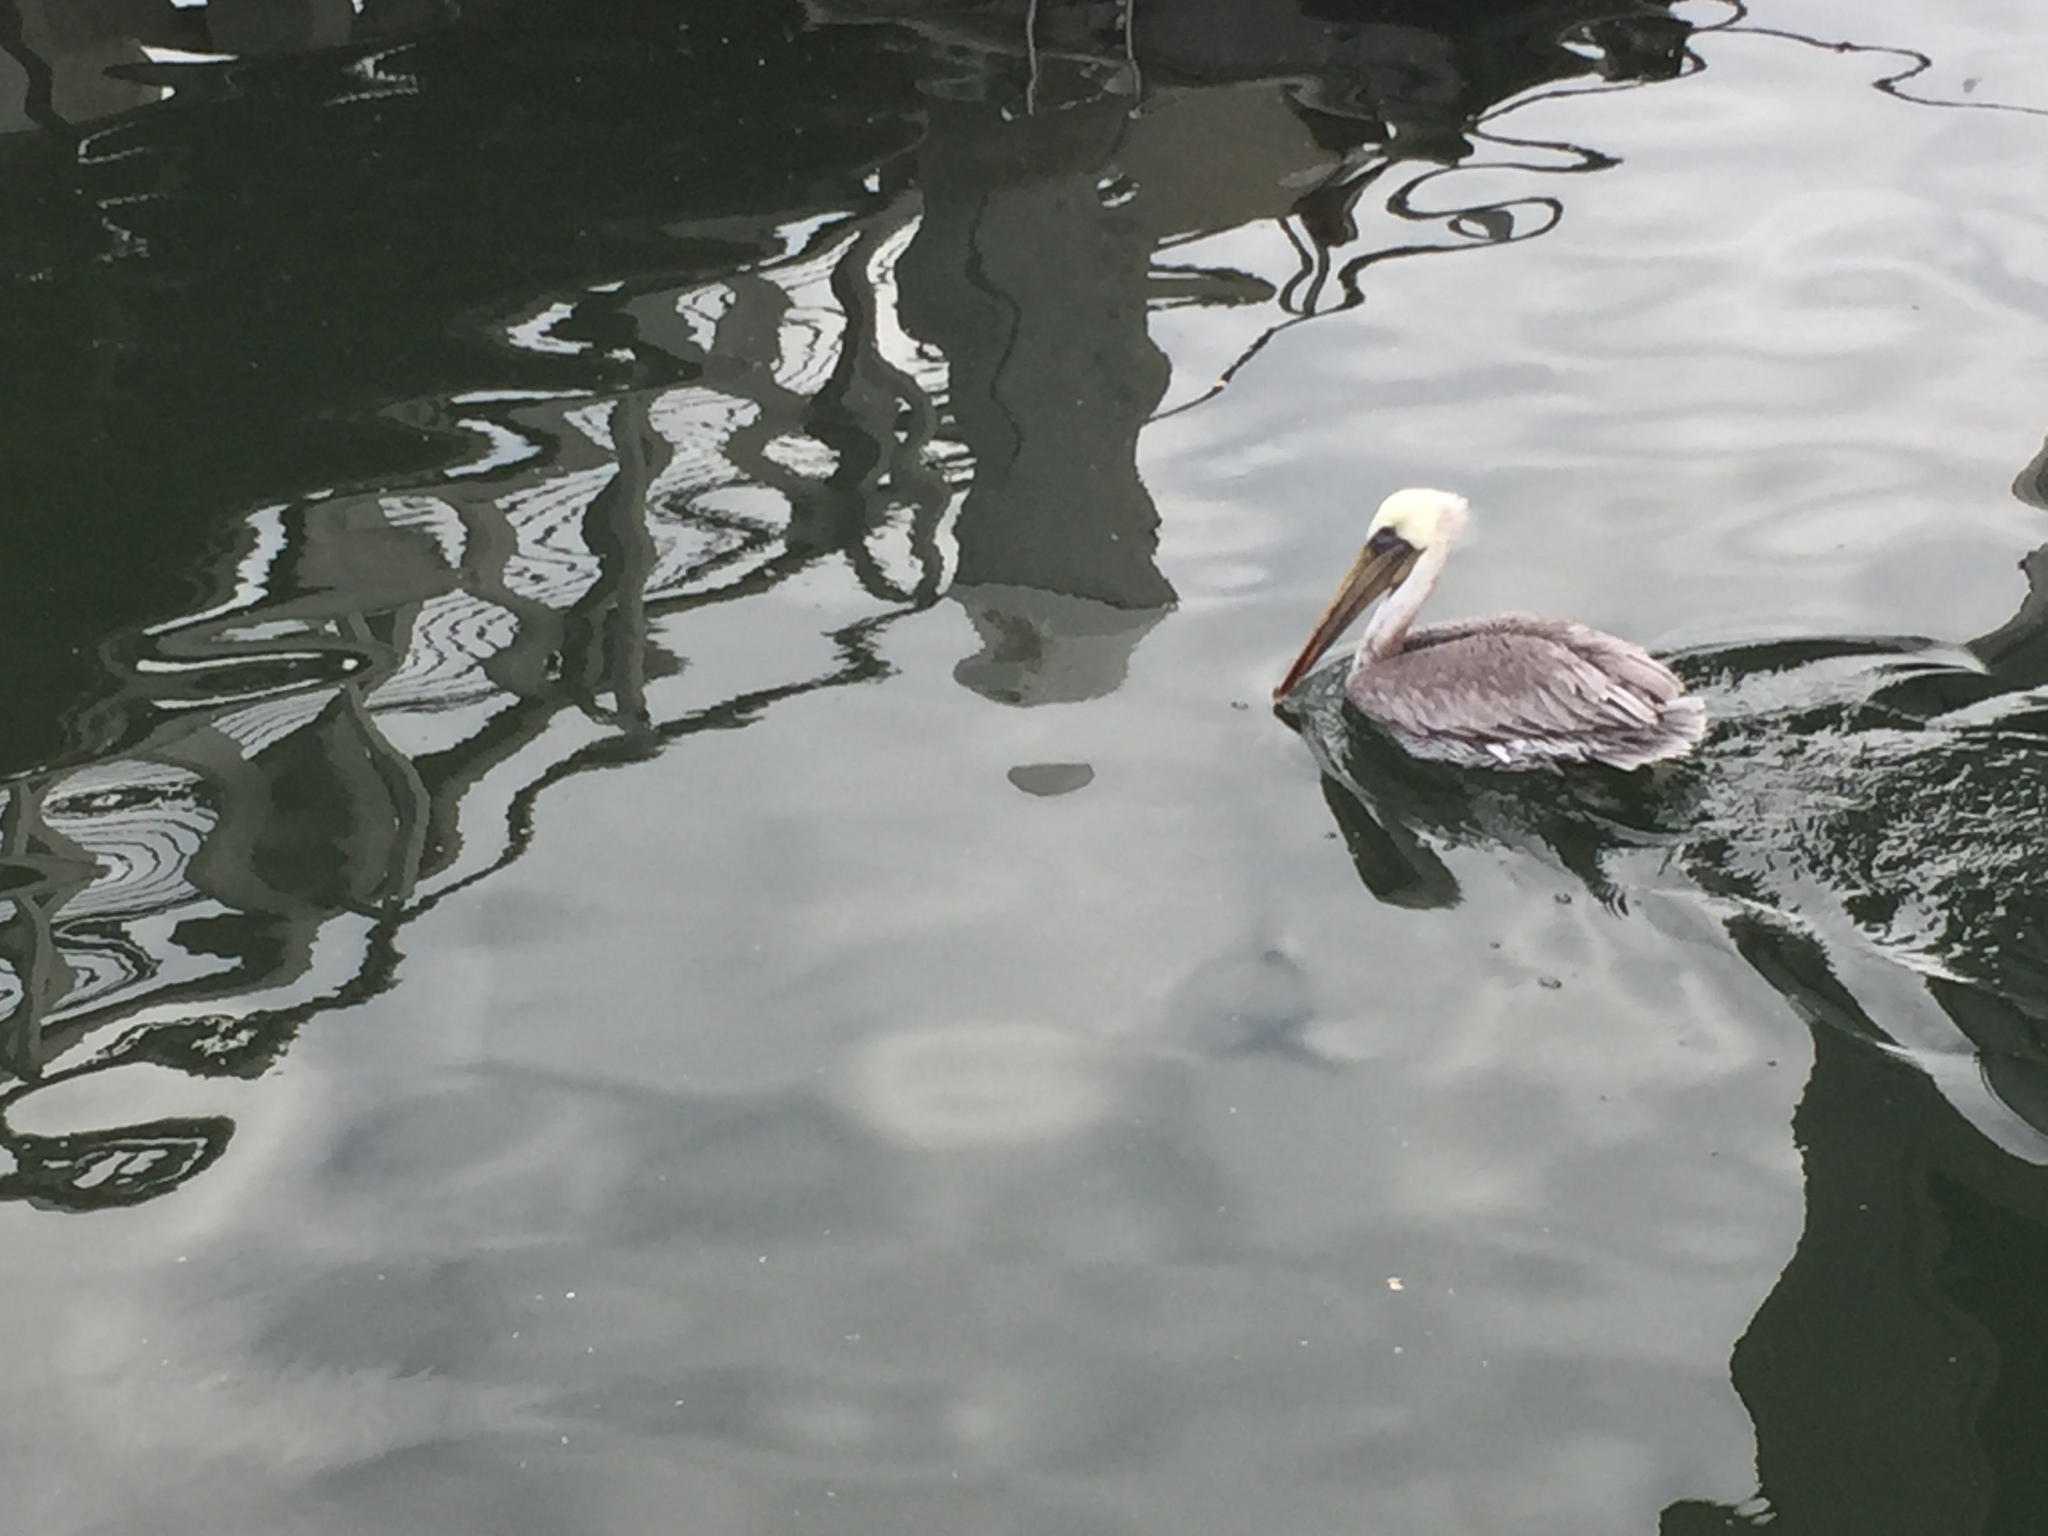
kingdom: Animalia
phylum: Chordata
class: Aves
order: Pelecaniformes
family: Pelecanidae
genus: Pelecanus
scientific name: Pelecanus occidentalis
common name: Brown pelican
